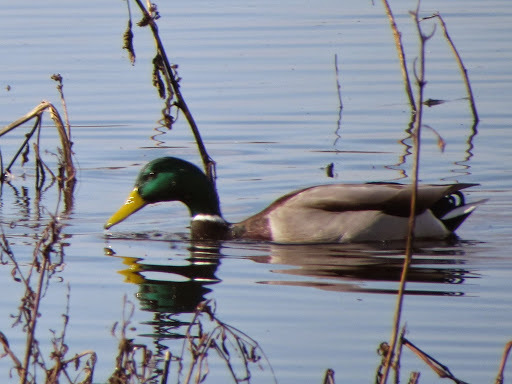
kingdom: Animalia
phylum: Chordata
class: Aves
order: Anseriformes
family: Anatidae
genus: Anas
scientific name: Anas platyrhynchos
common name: Mallard
